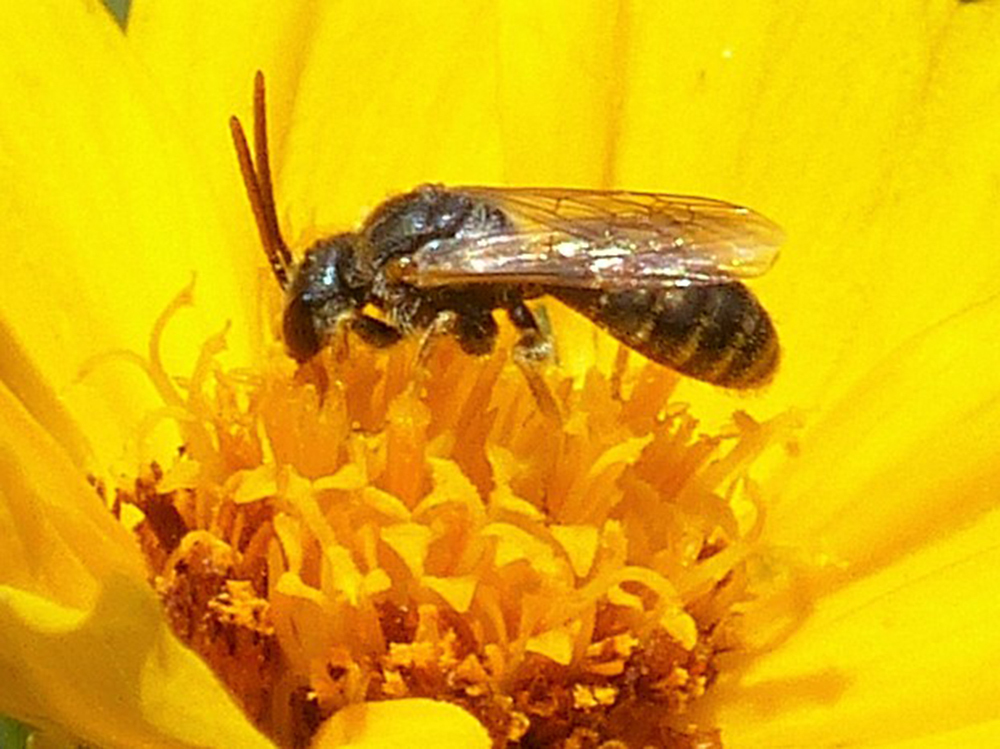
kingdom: Animalia
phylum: Arthropoda
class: Insecta
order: Hymenoptera
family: Halictidae
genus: Halictus
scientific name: Halictus ligatus
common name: Ligated furrow bee
